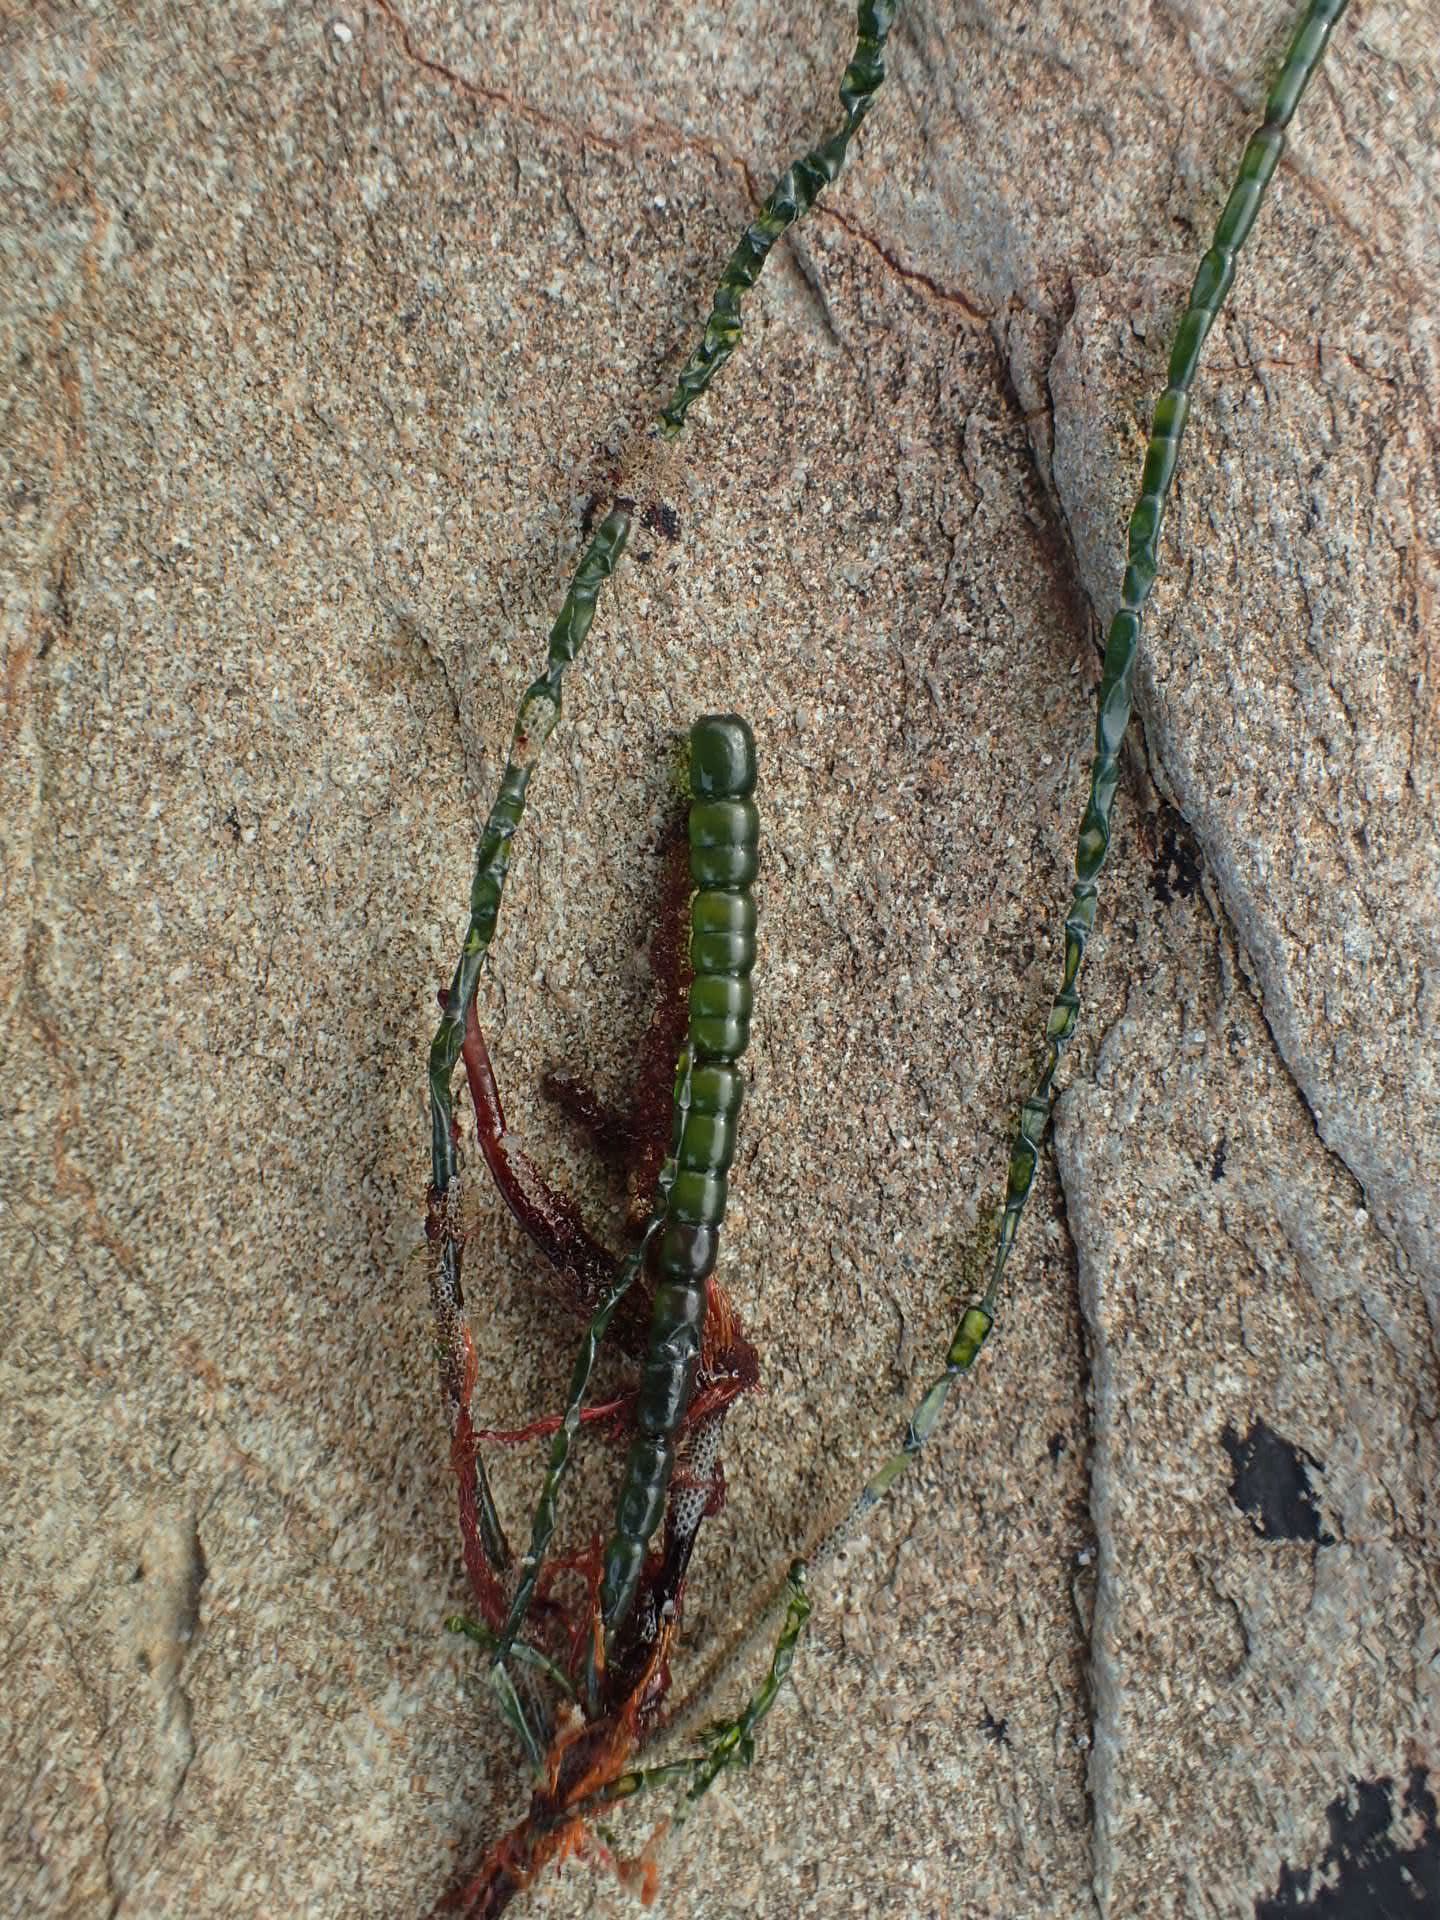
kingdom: Plantae
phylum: Chlorophyta
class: Ulvophyceae
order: Cladophorales
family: Cladophoraceae
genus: Chaetomorpha
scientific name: Chaetomorpha coliformis
